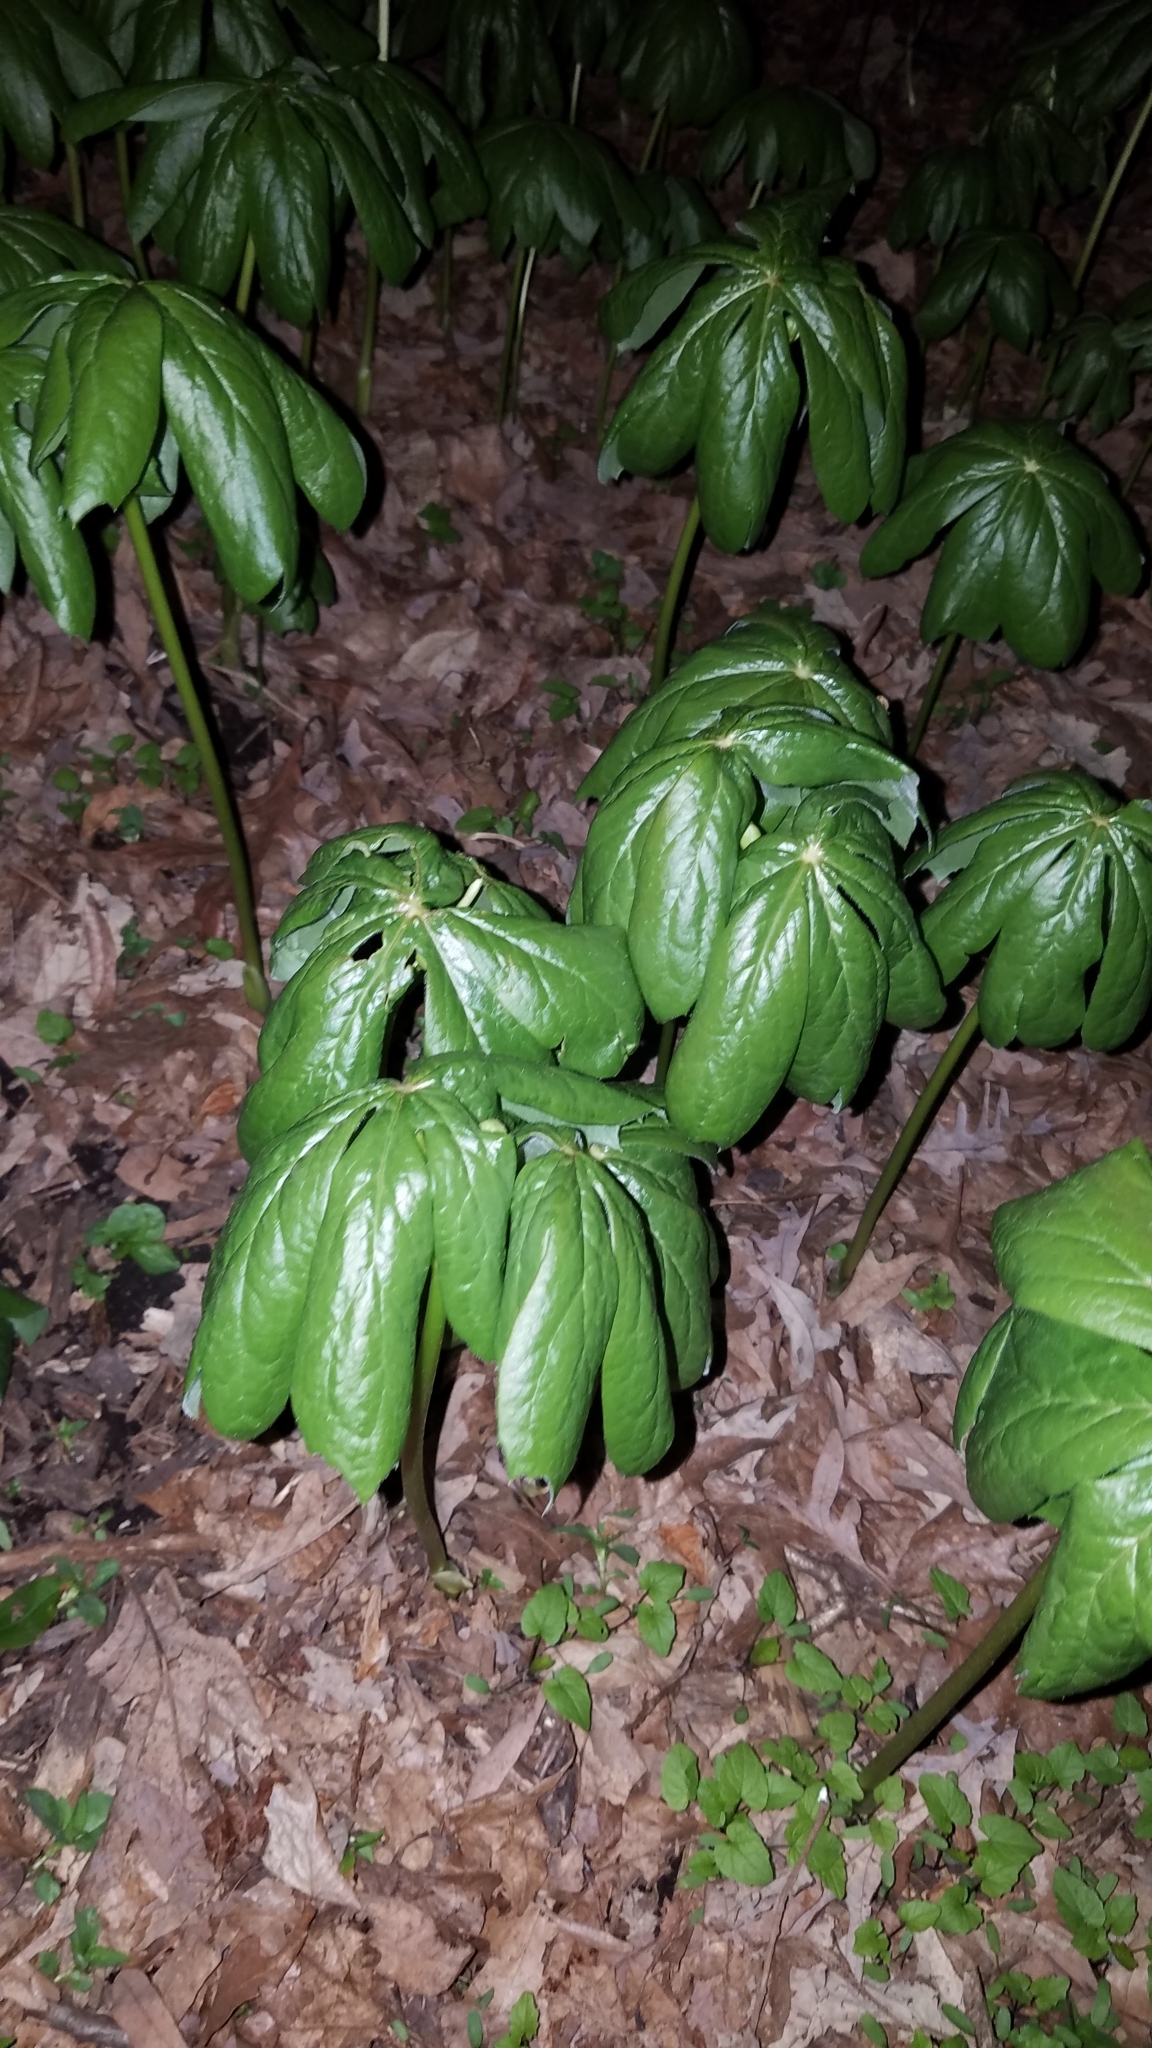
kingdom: Plantae
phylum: Tracheophyta
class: Magnoliopsida
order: Ranunculales
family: Berberidaceae
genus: Podophyllum
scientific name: Podophyllum peltatum
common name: Wild mandrake
